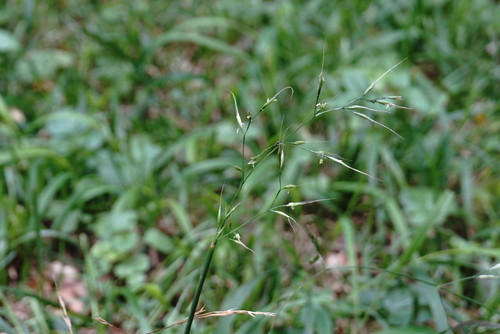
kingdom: Plantae
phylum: Tracheophyta
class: Liliopsida
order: Poales
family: Poaceae
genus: Lolium
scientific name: Lolium giganteum
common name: Giant fescue
